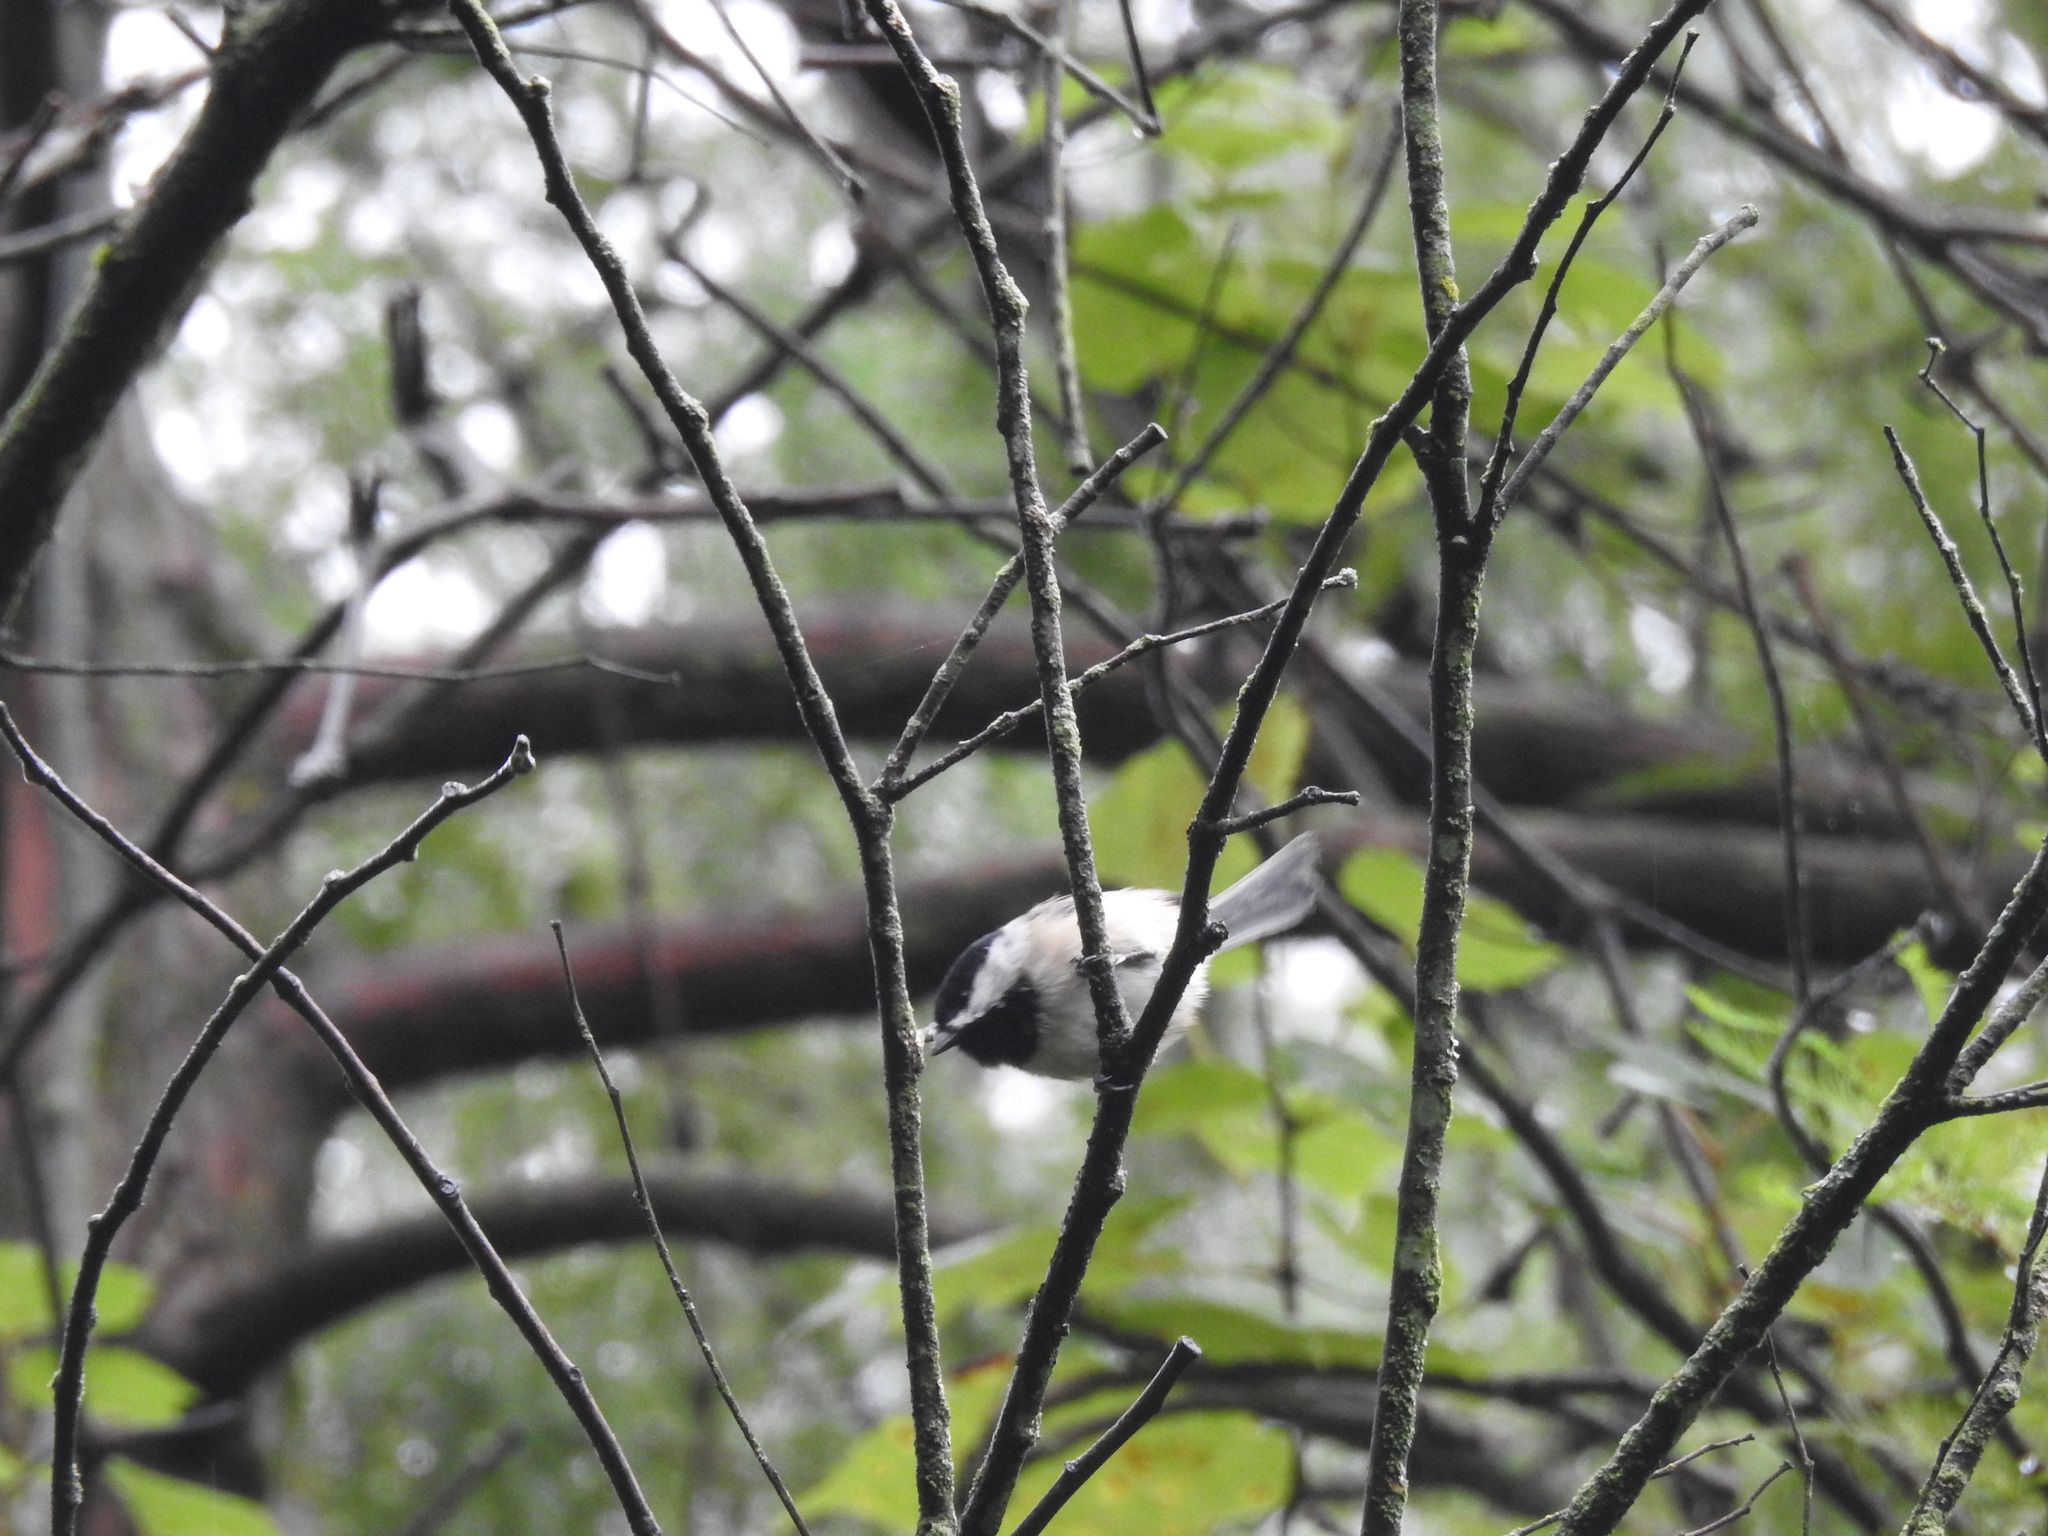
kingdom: Animalia
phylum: Chordata
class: Aves
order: Passeriformes
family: Paridae
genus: Poecile
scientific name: Poecile carolinensis
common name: Carolina chickadee
